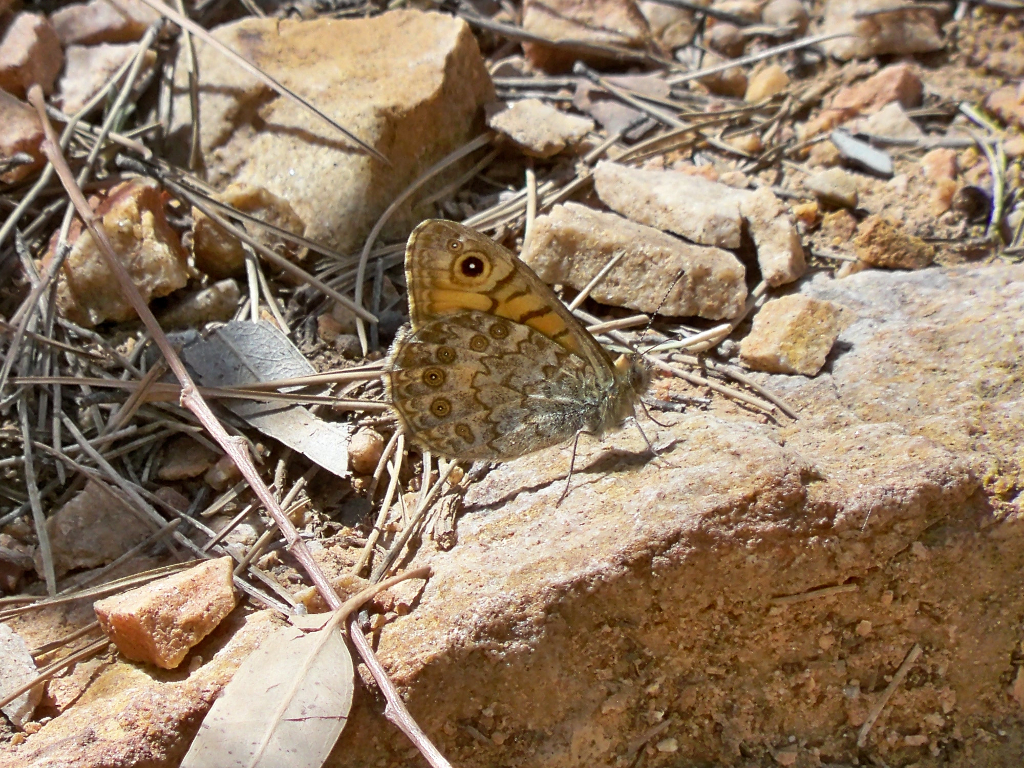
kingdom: Animalia
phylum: Arthropoda
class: Insecta
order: Lepidoptera
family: Nymphalidae
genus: Pararge
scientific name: Pararge Lasiommata megera
